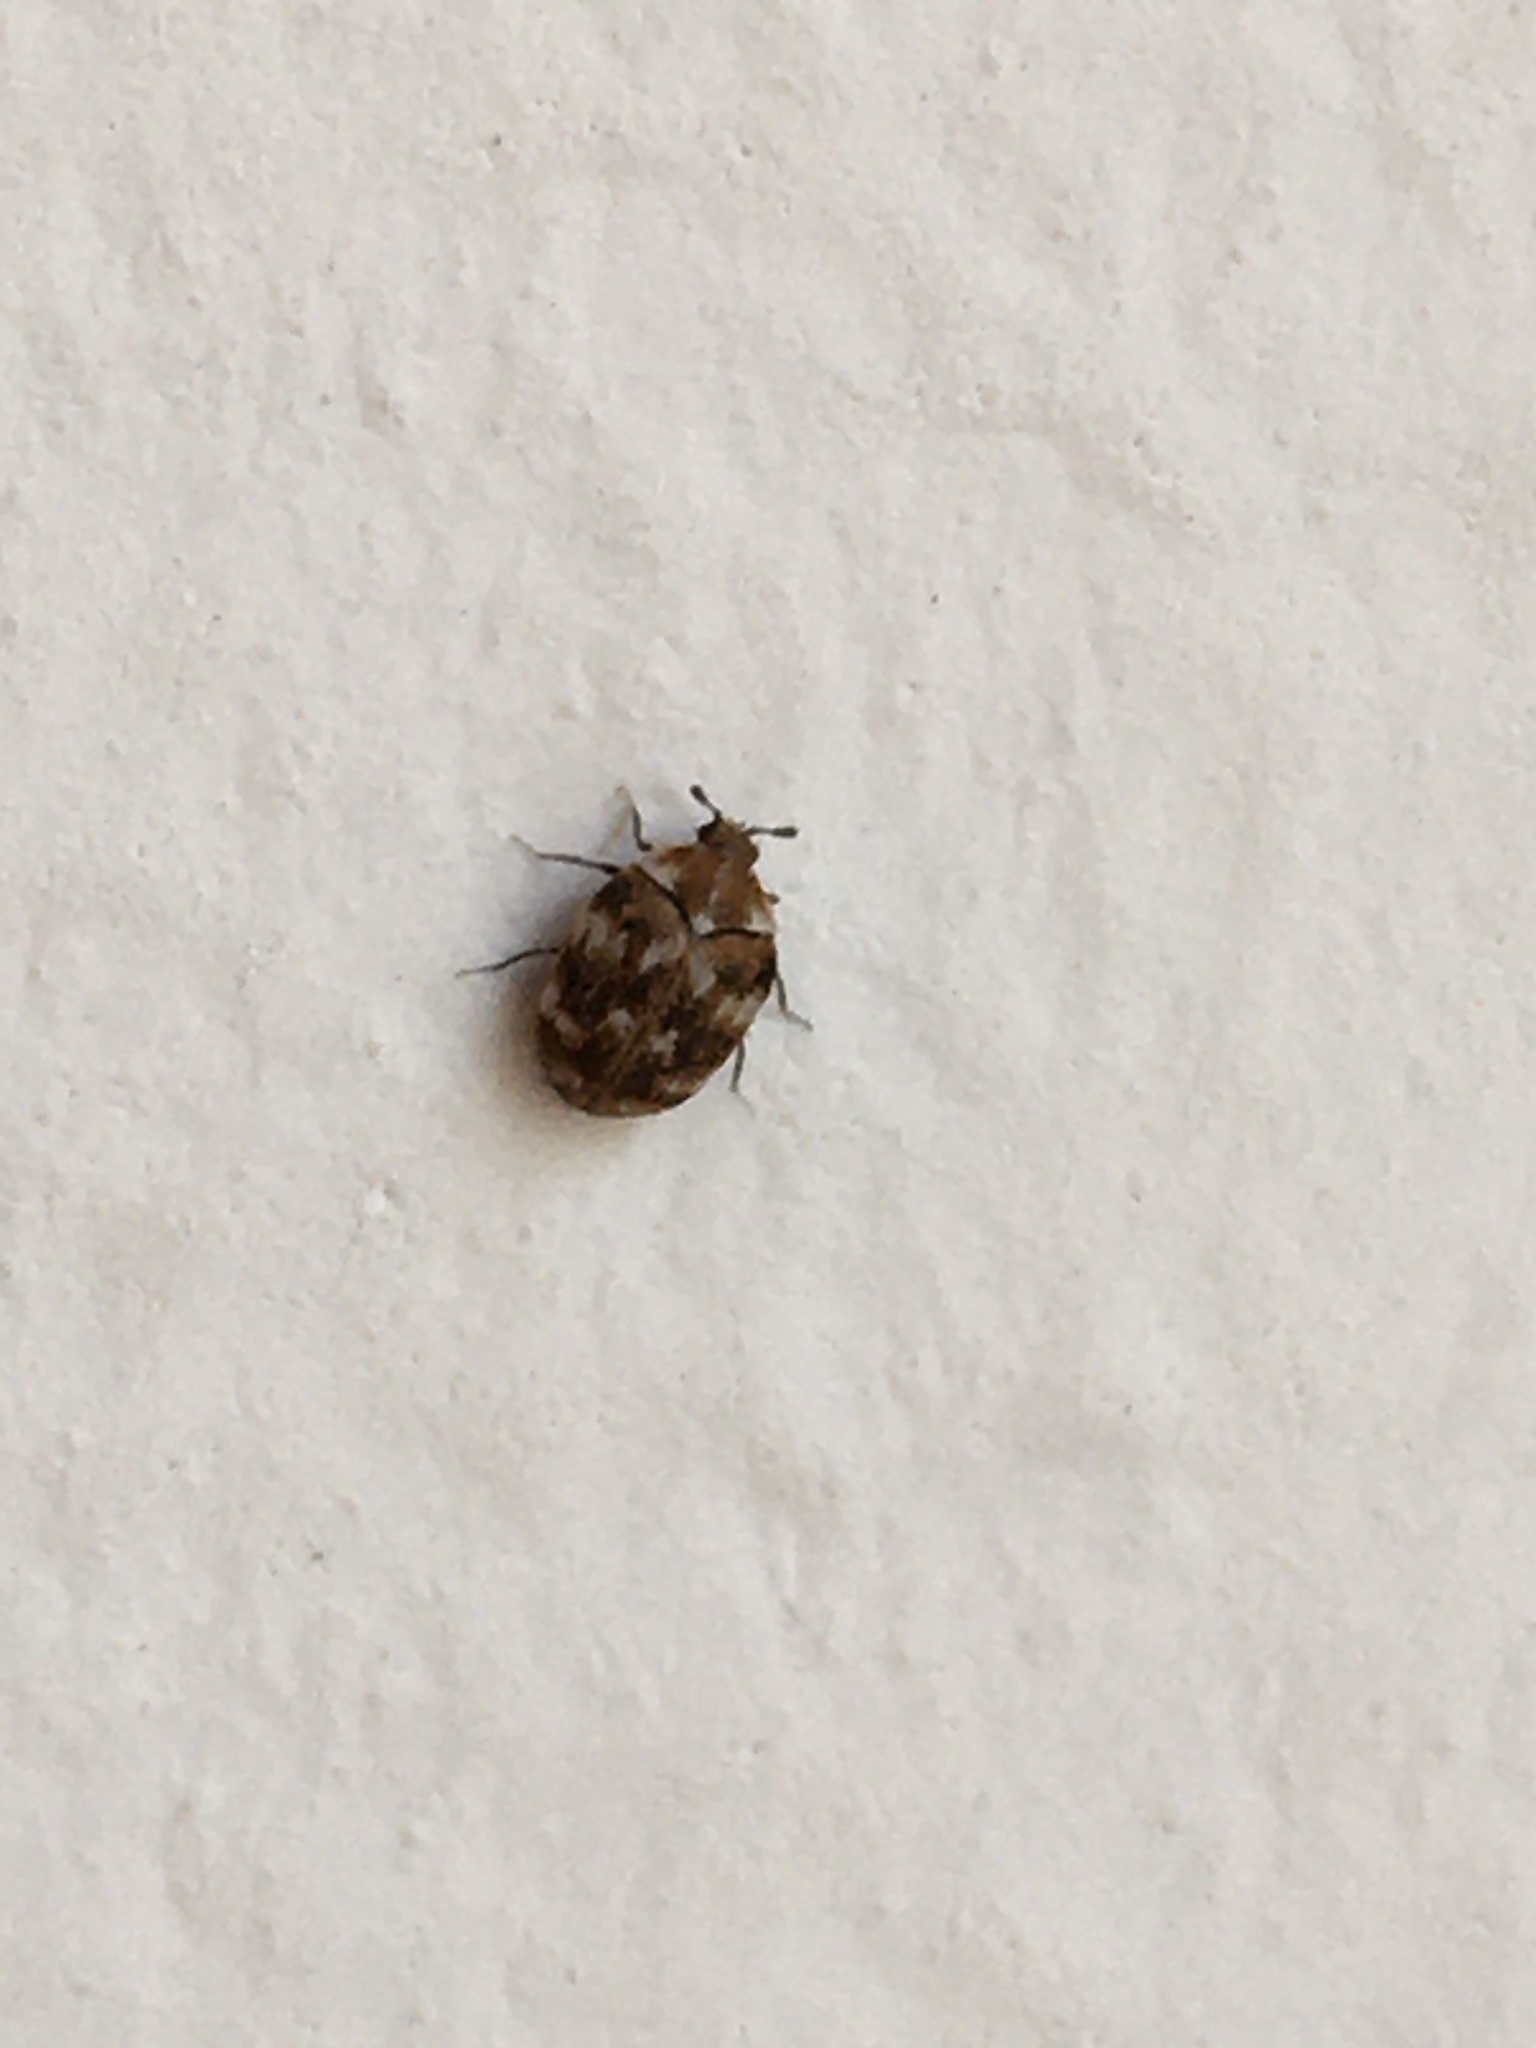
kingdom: Animalia
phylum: Arthropoda
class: Insecta
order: Coleoptera
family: Dermestidae
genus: Anthrenus
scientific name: Anthrenus verbasci
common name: Varied carpet beetle
